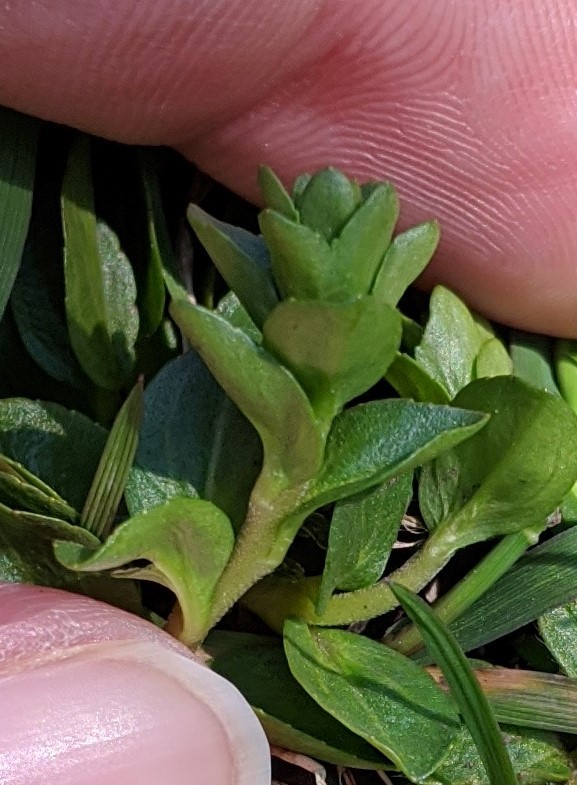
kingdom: Plantae
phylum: Tracheophyta
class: Magnoliopsida
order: Lamiales
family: Plantaginaceae
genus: Veronica
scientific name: Veronica serpyllifolia
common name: Thyme-leaved speedwell
